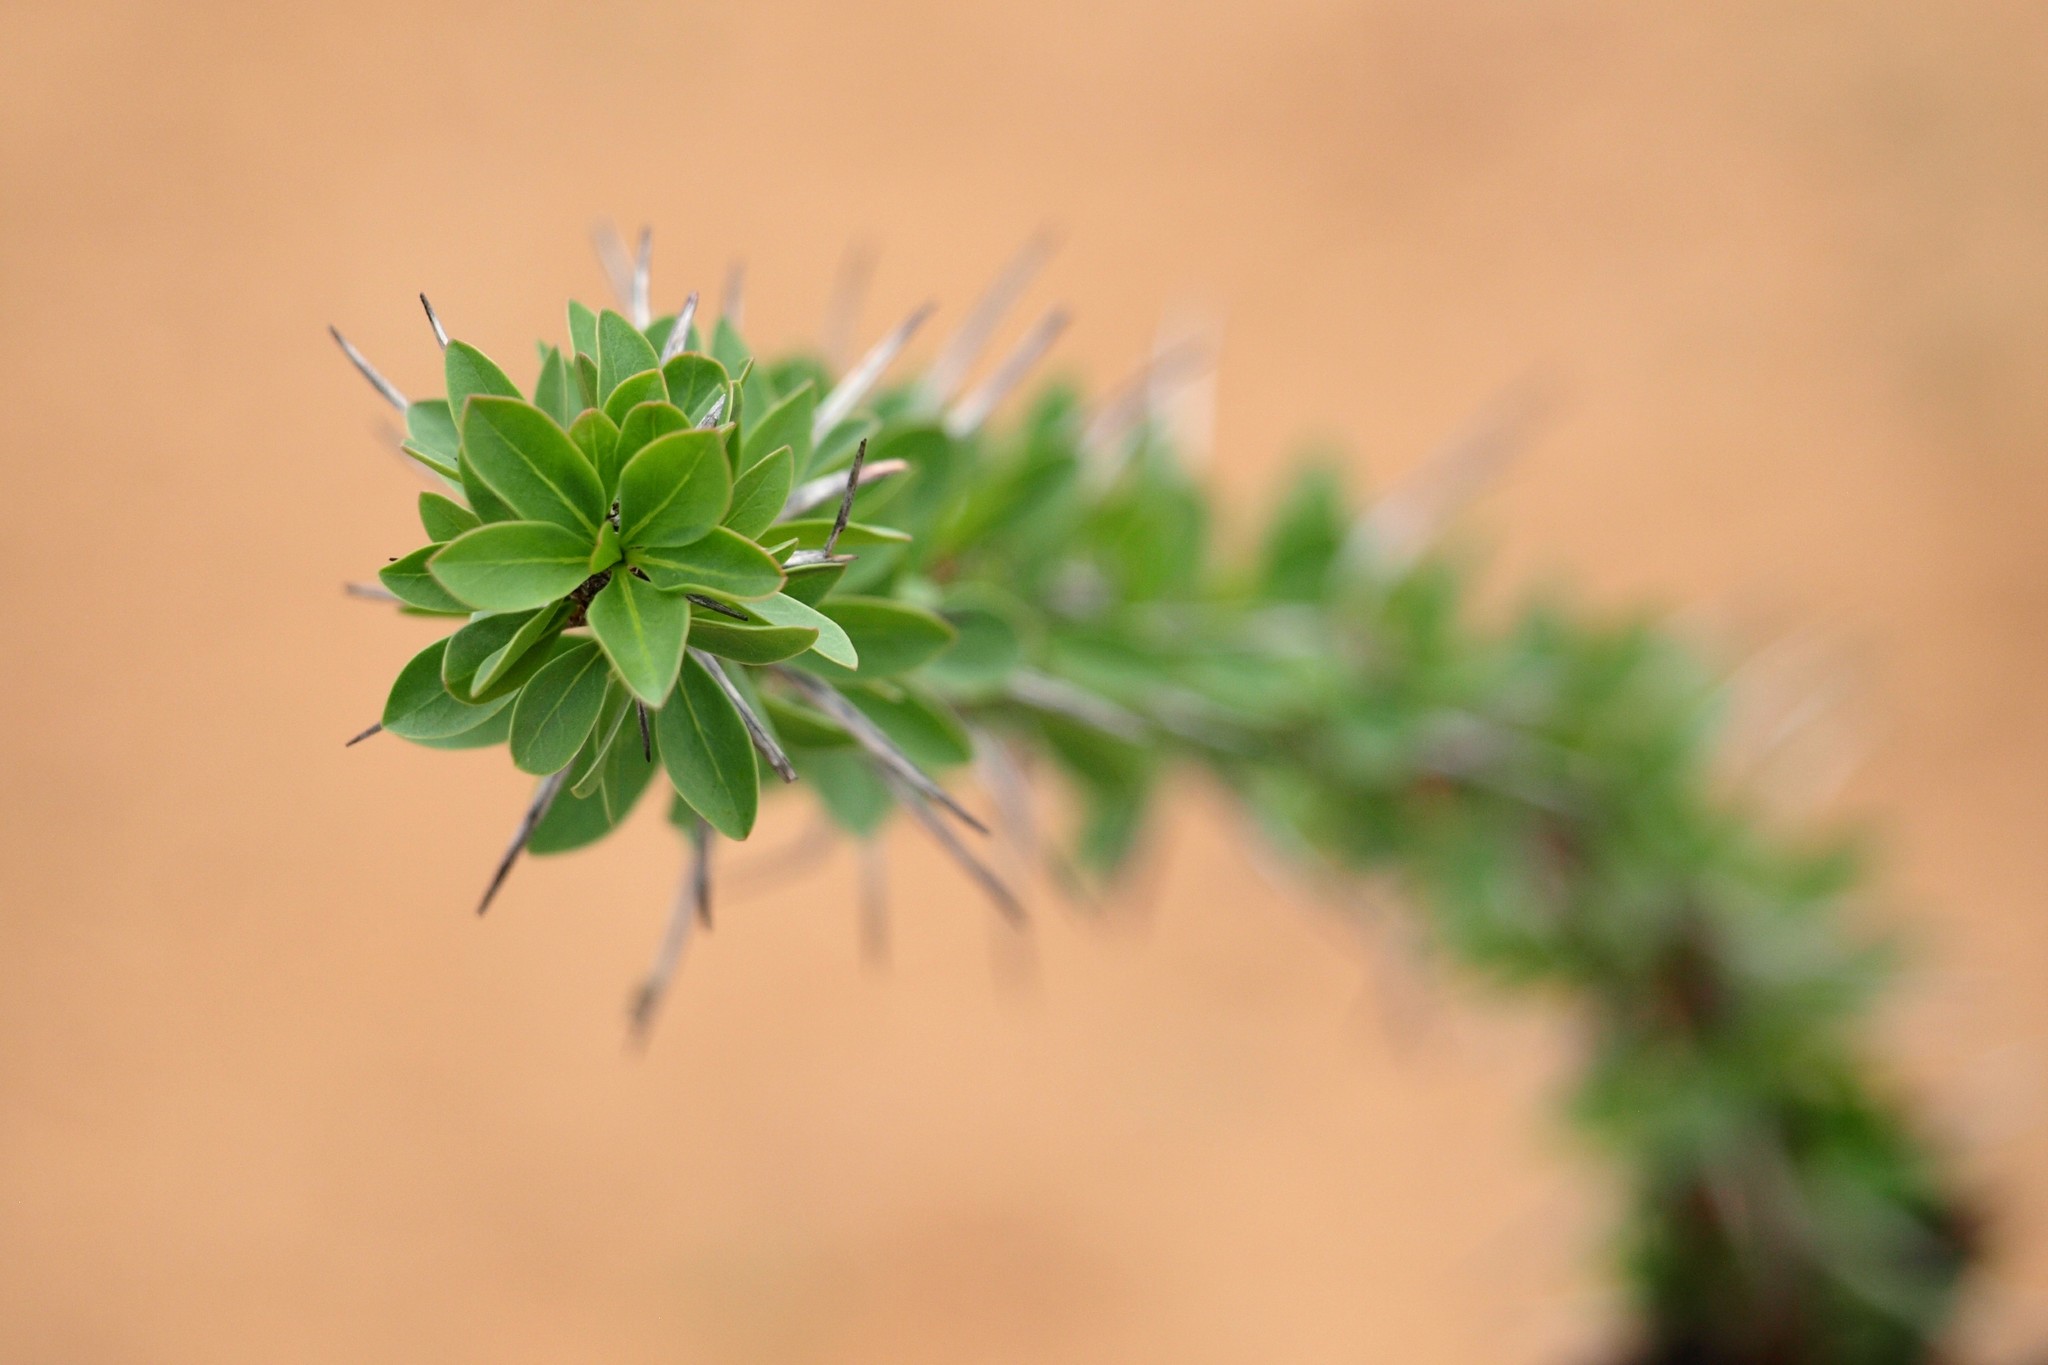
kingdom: Plantae
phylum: Tracheophyta
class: Magnoliopsida
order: Ericales
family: Fouquieriaceae
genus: Fouquieria
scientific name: Fouquieria splendens
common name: Vine-cactus
